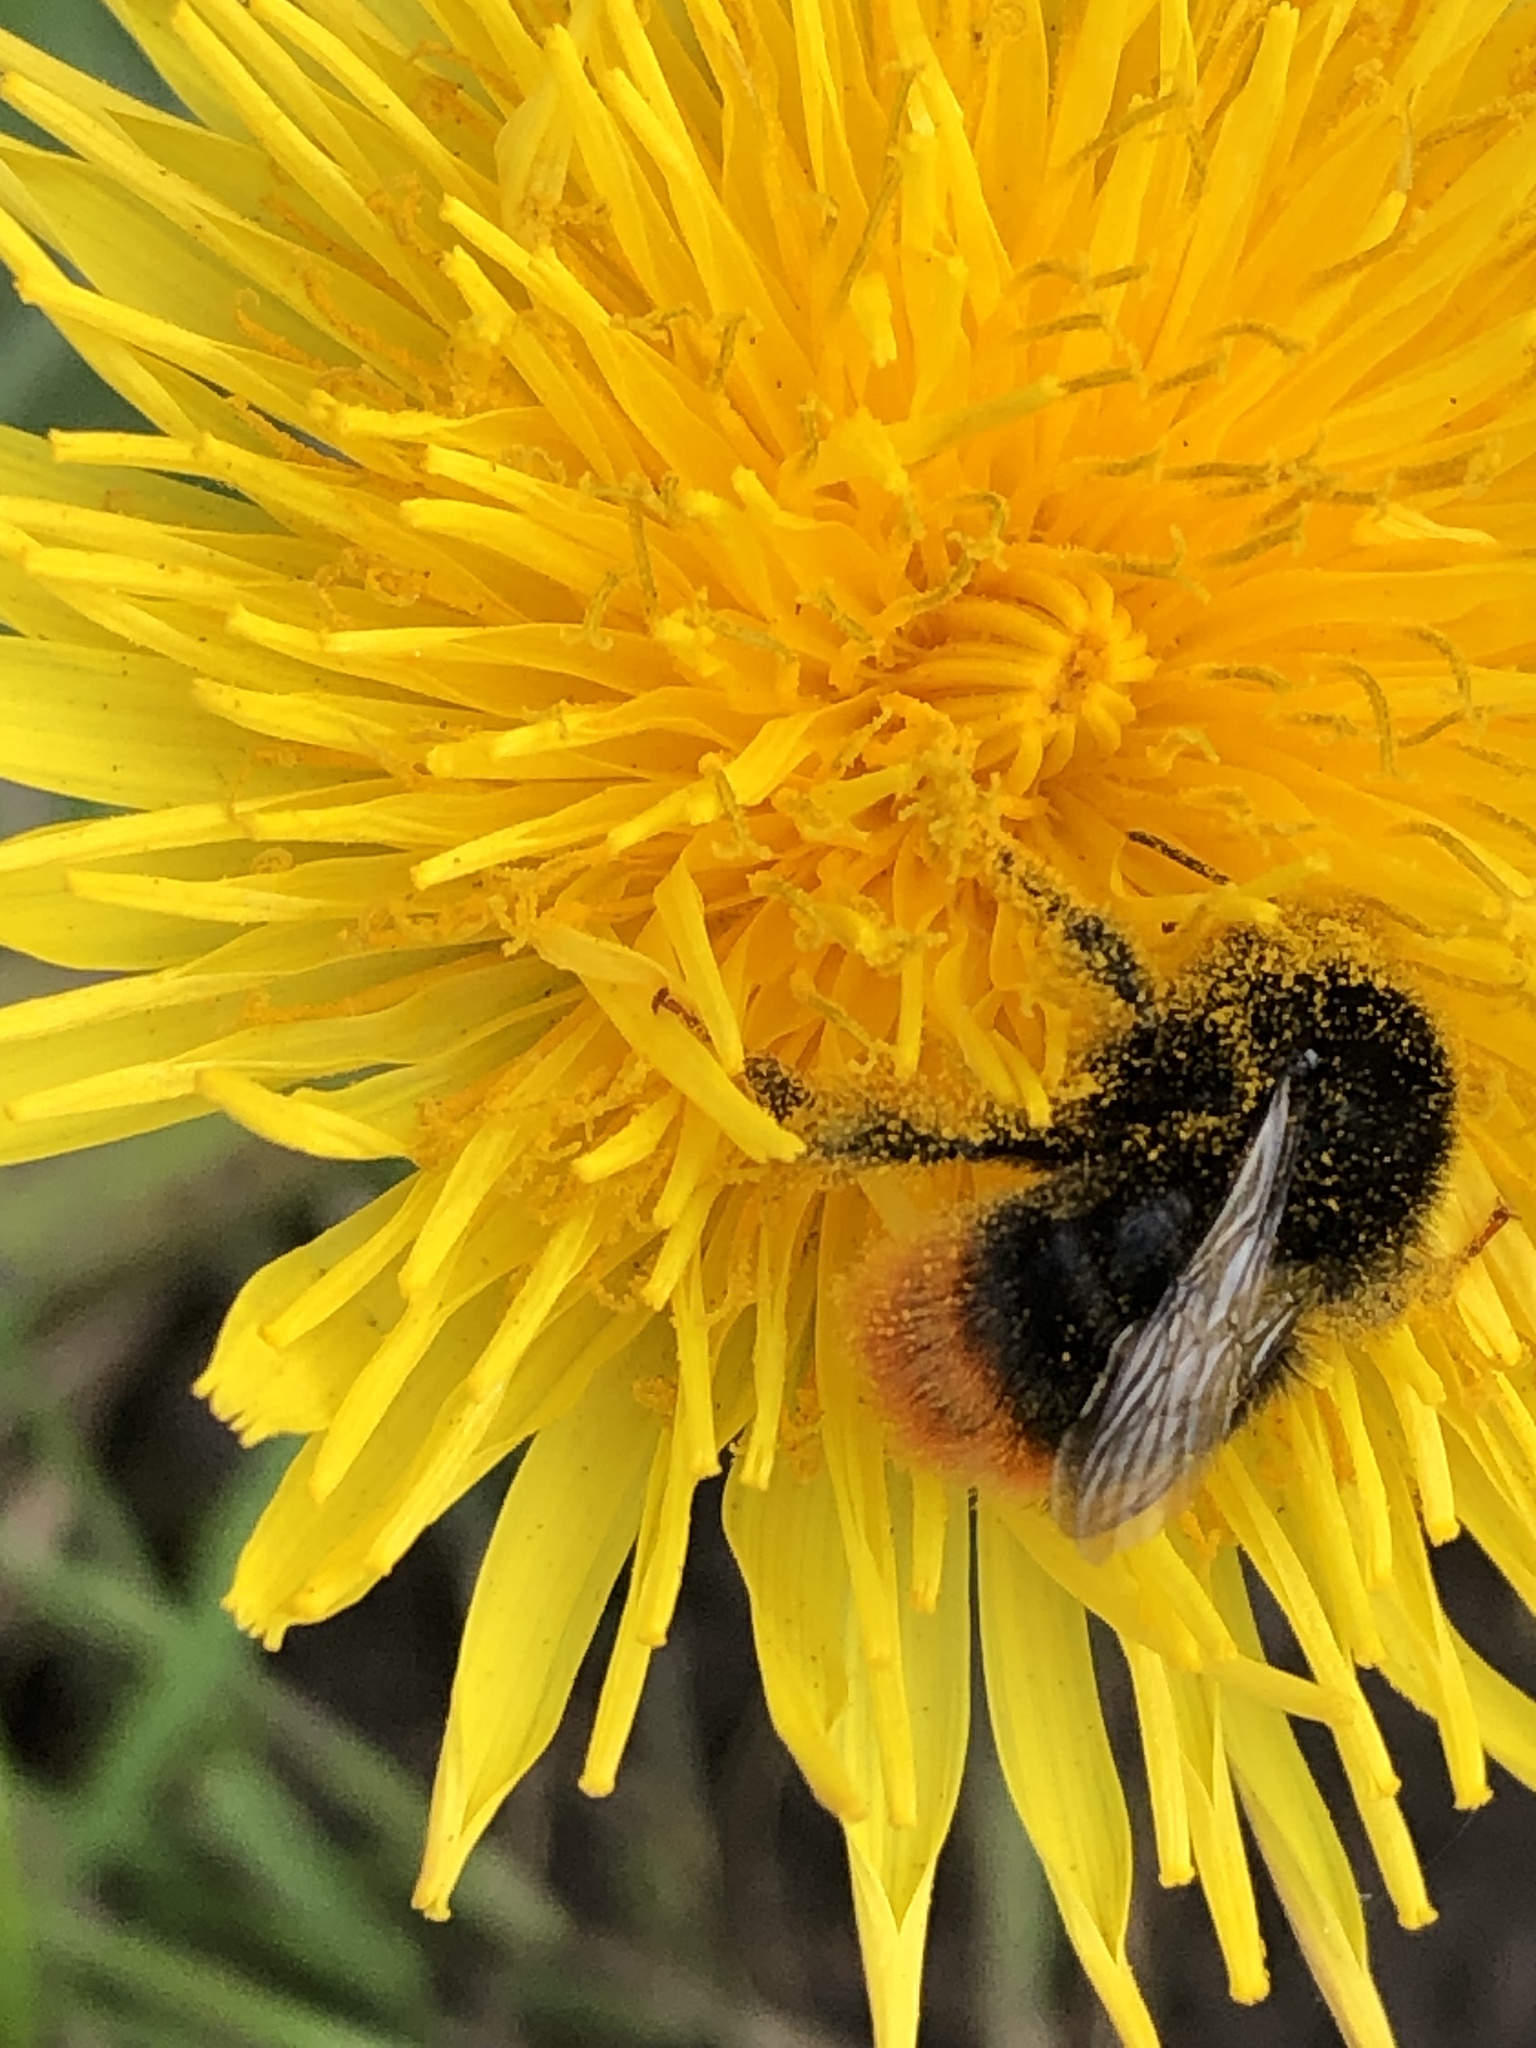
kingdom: Animalia
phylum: Arthropoda
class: Insecta
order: Hymenoptera
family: Apidae
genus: Bombus
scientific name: Bombus lapidarius
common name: Large red-tailed humble-bee
